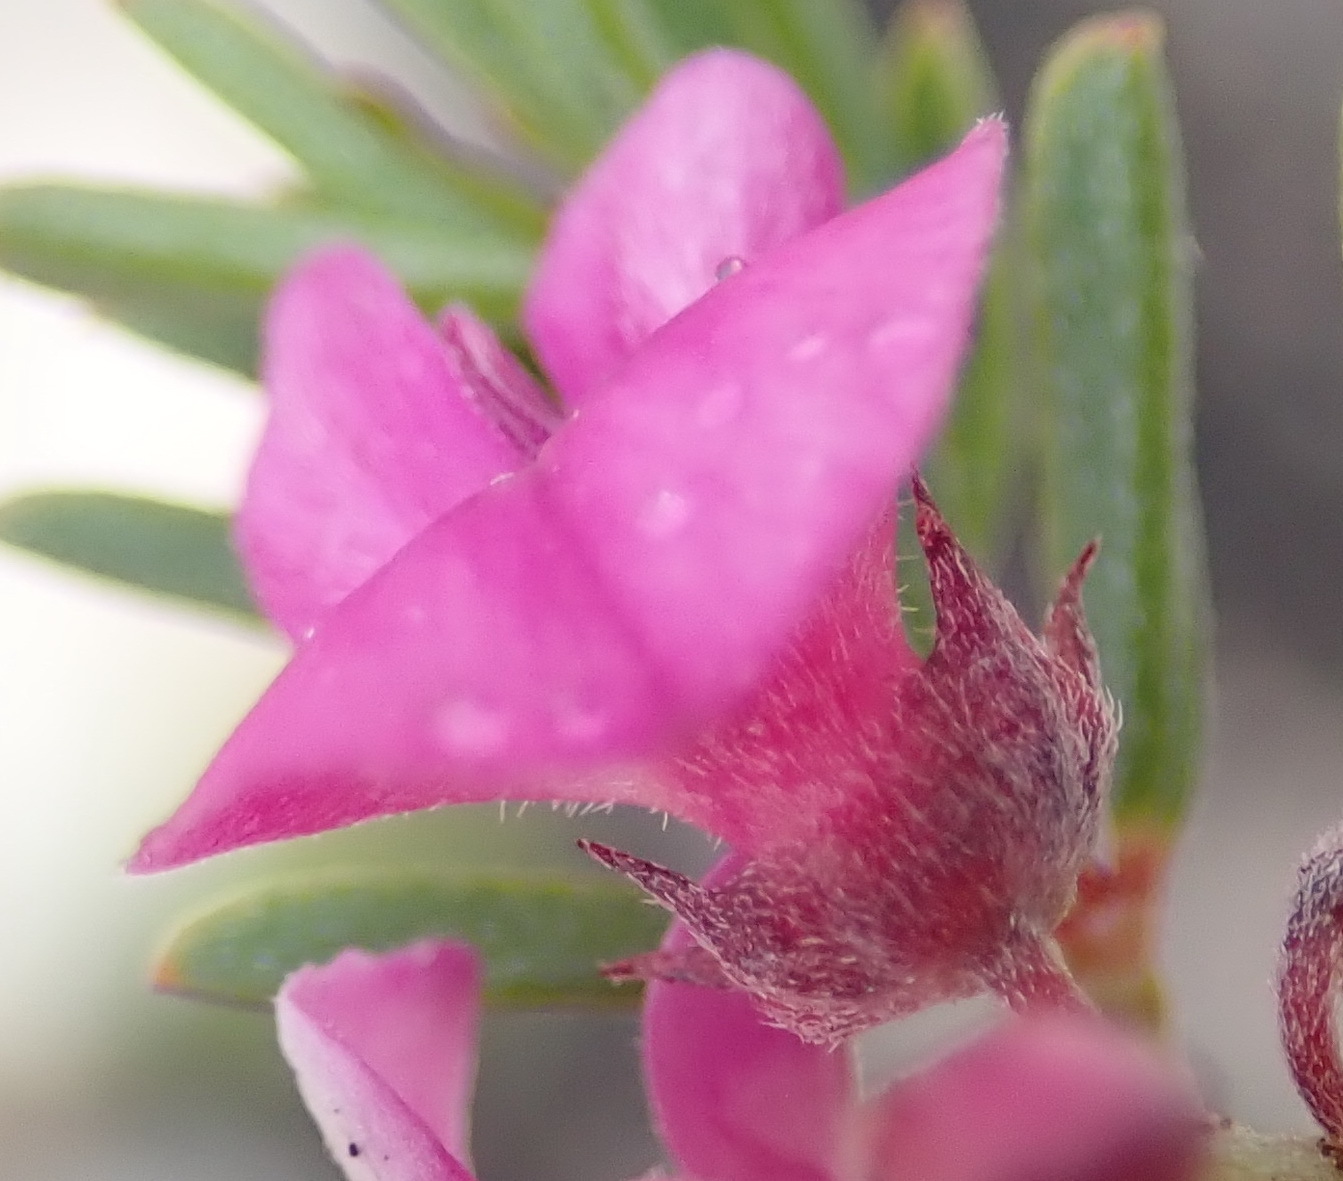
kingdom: Plantae
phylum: Tracheophyta
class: Magnoliopsida
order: Fabales
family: Fabaceae
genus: Indigofera
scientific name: Indigofera pappei
